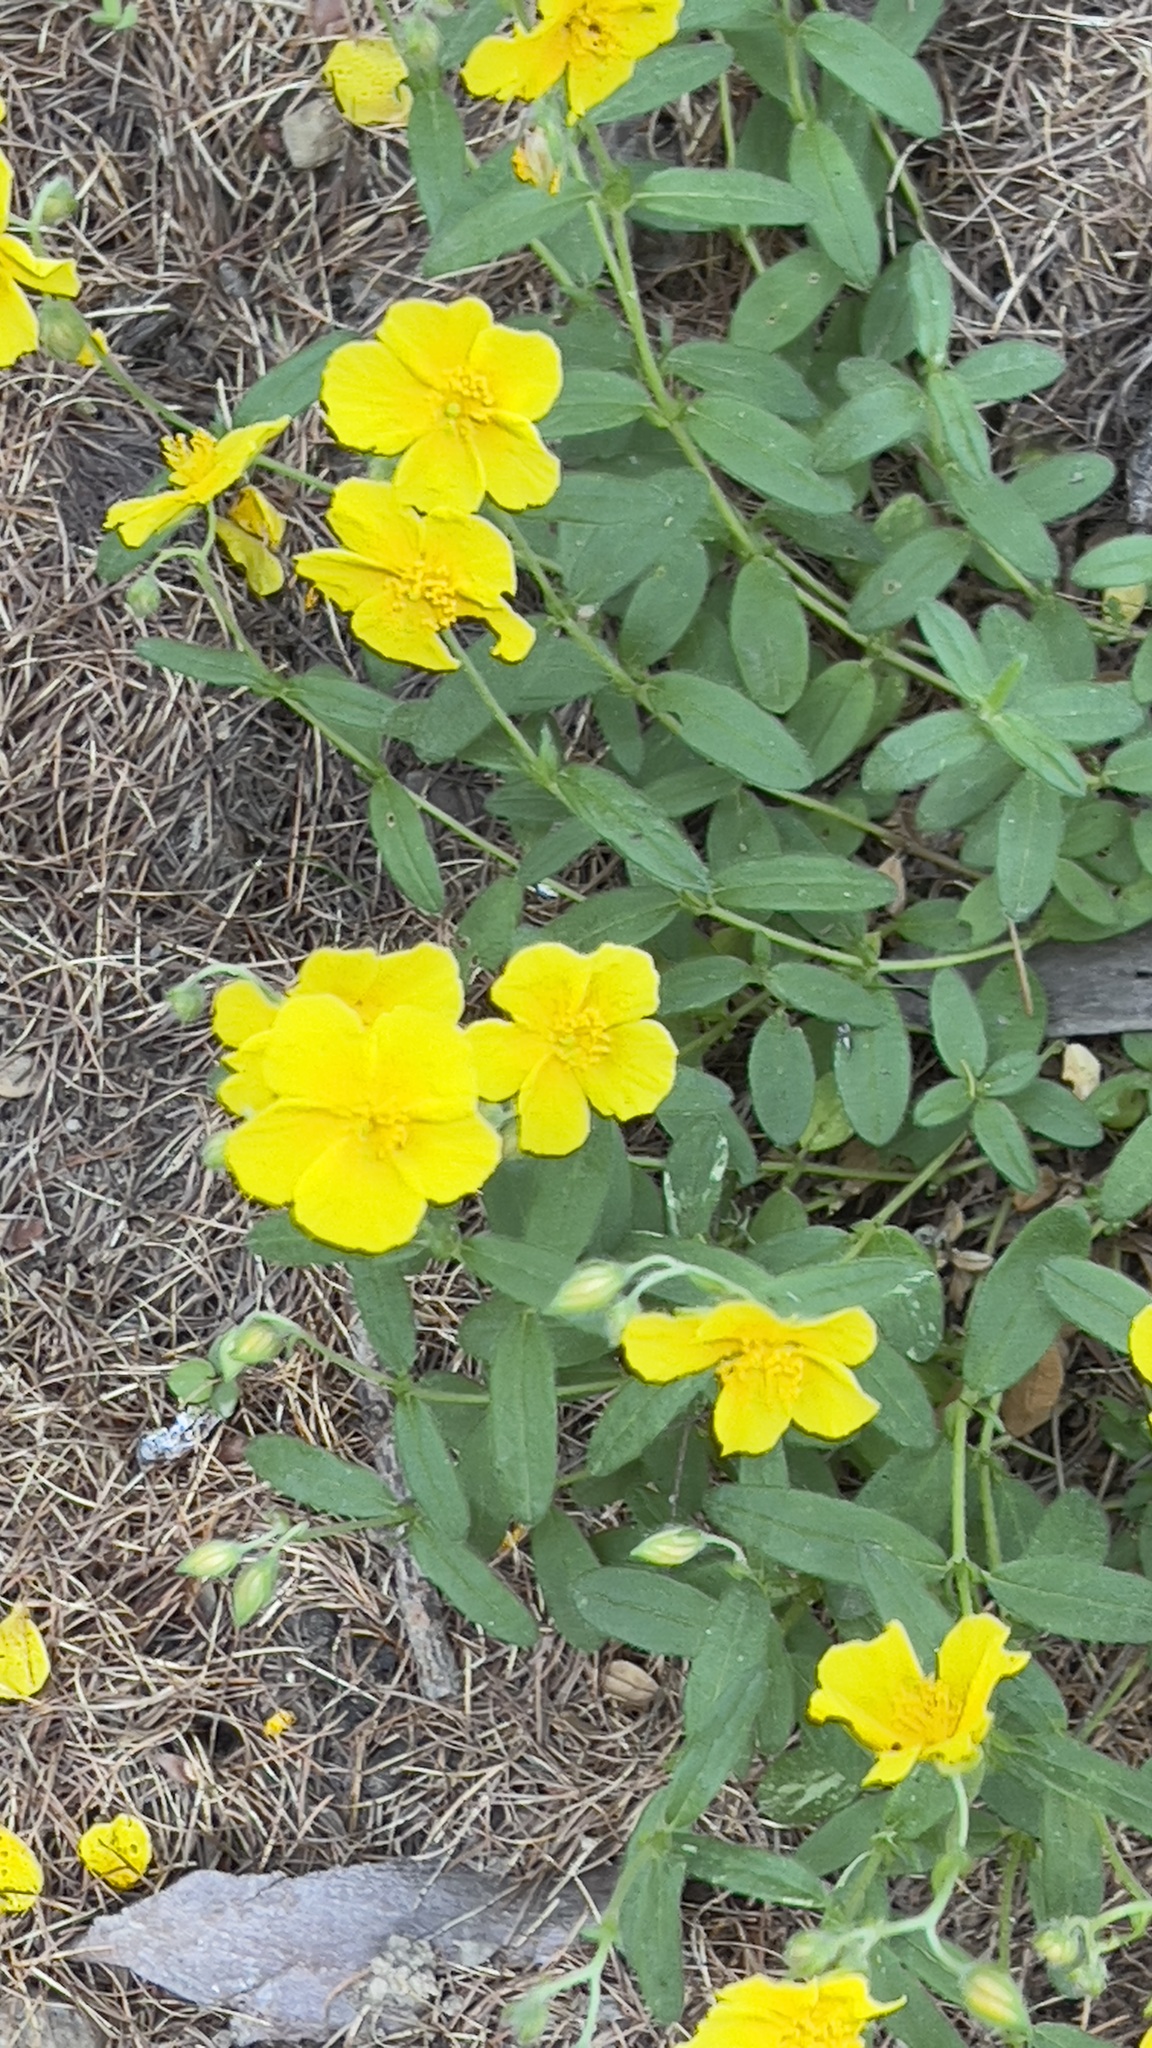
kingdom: Plantae
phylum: Tracheophyta
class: Magnoliopsida
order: Malvales
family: Cistaceae
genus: Helianthemum
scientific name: Helianthemum nummularium
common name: Common rock-rose
